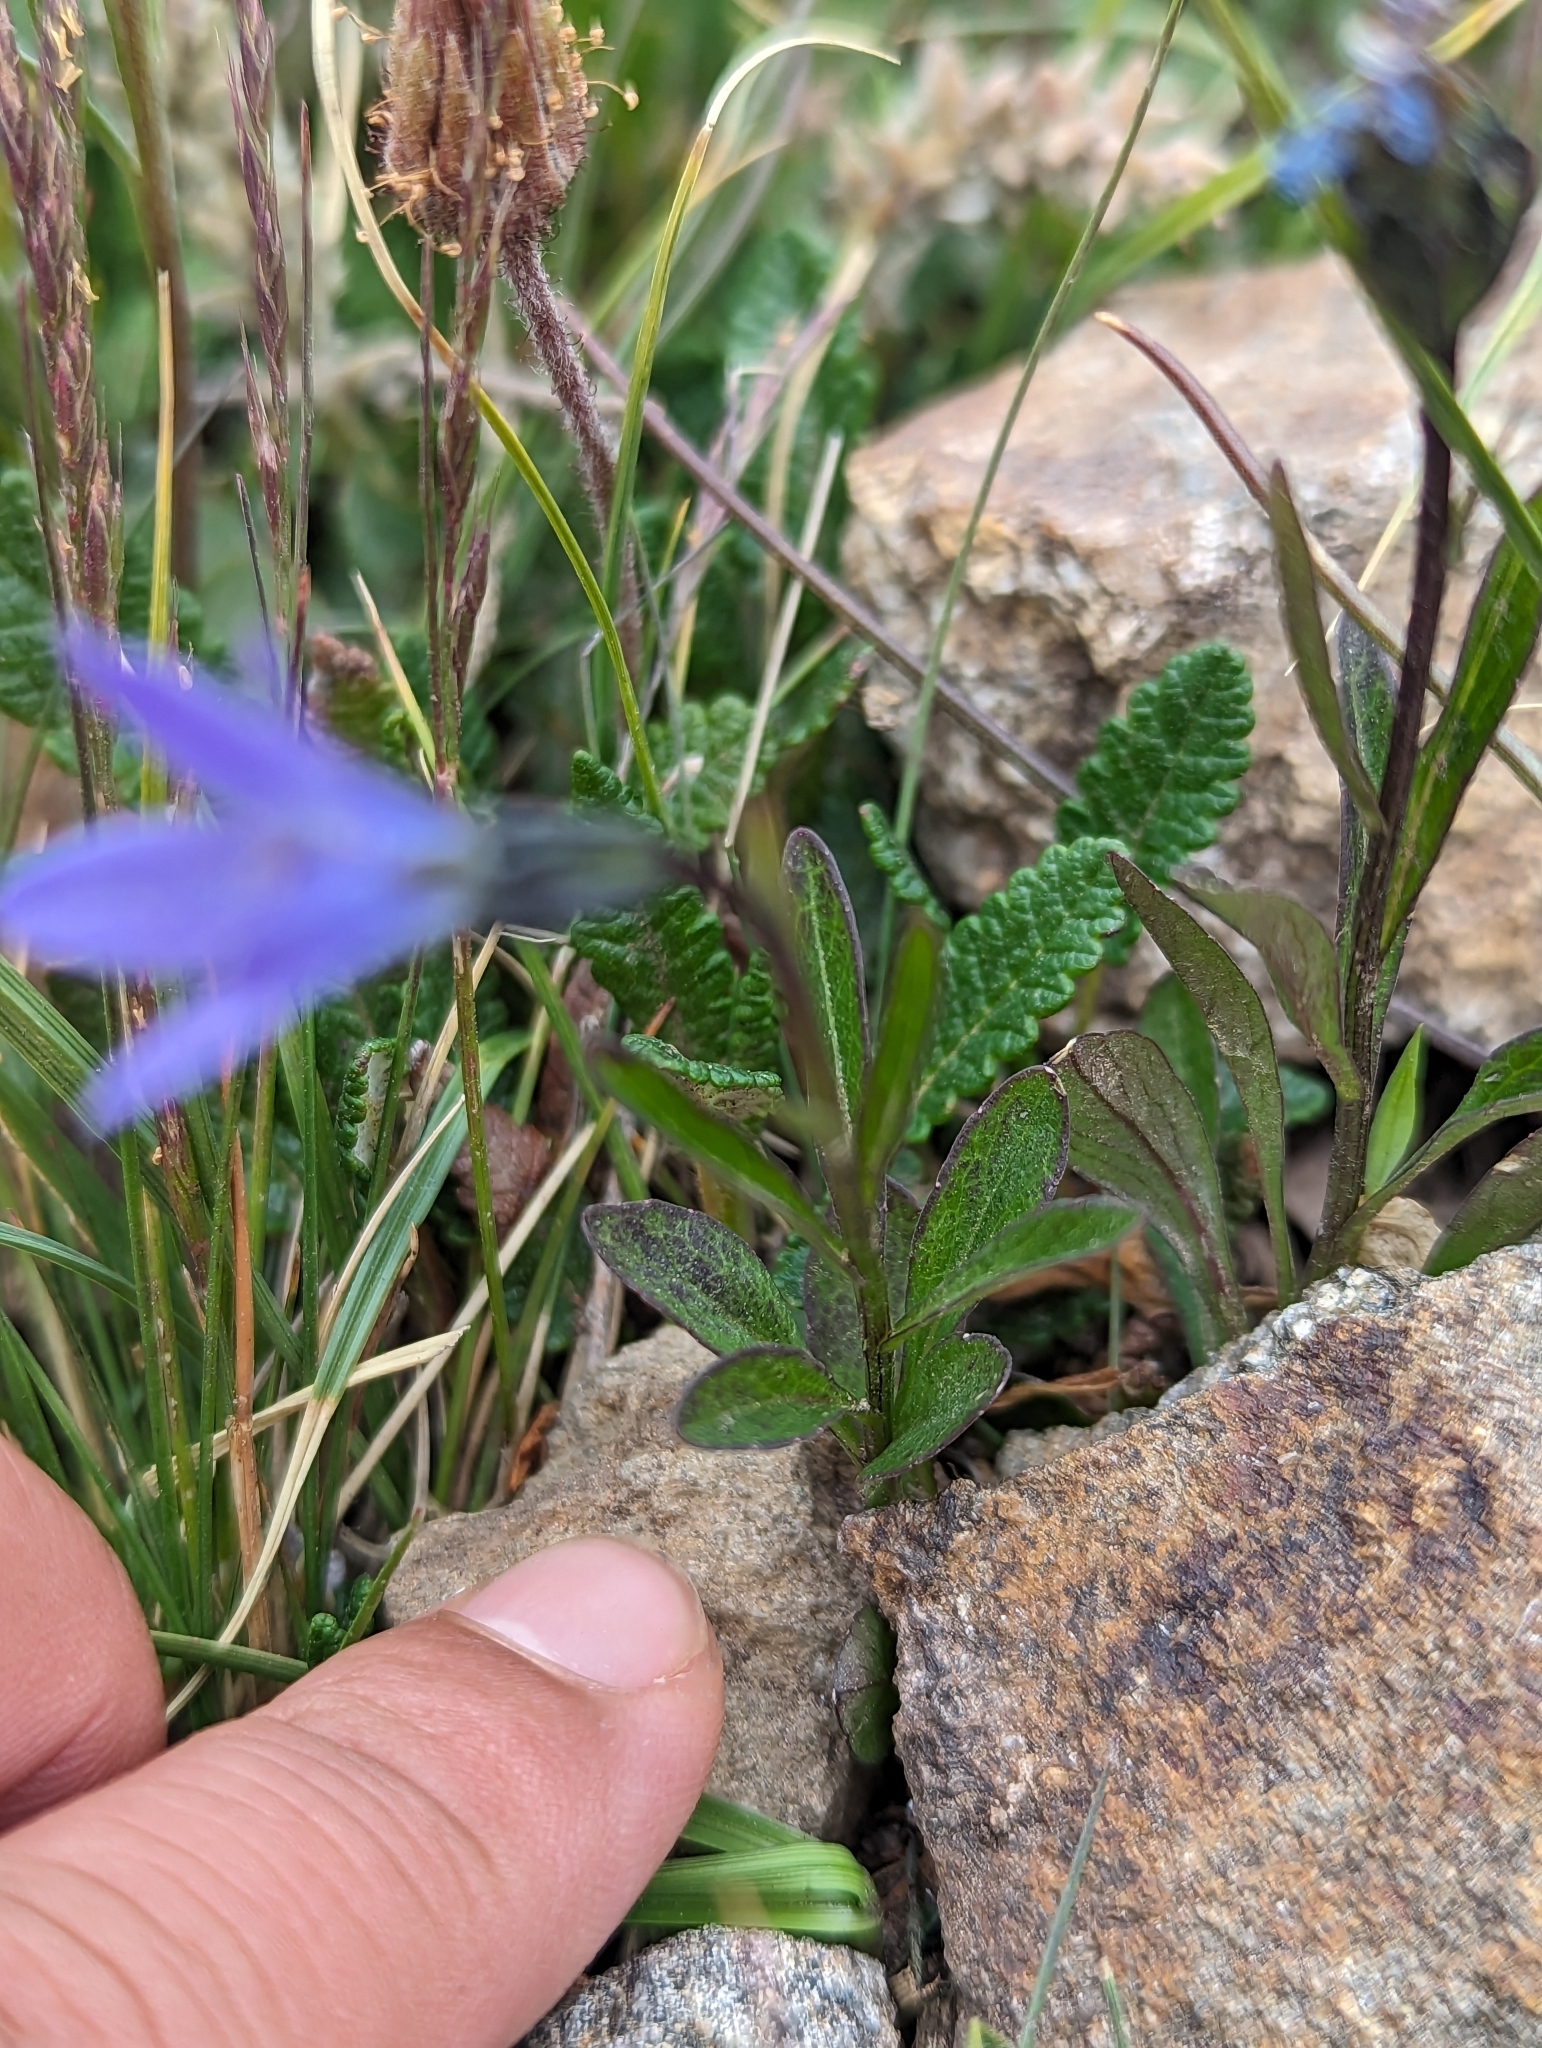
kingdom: Plantae
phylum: Tracheophyta
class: Magnoliopsida
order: Asterales
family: Campanulaceae
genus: Campanula
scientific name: Campanula uniflora
